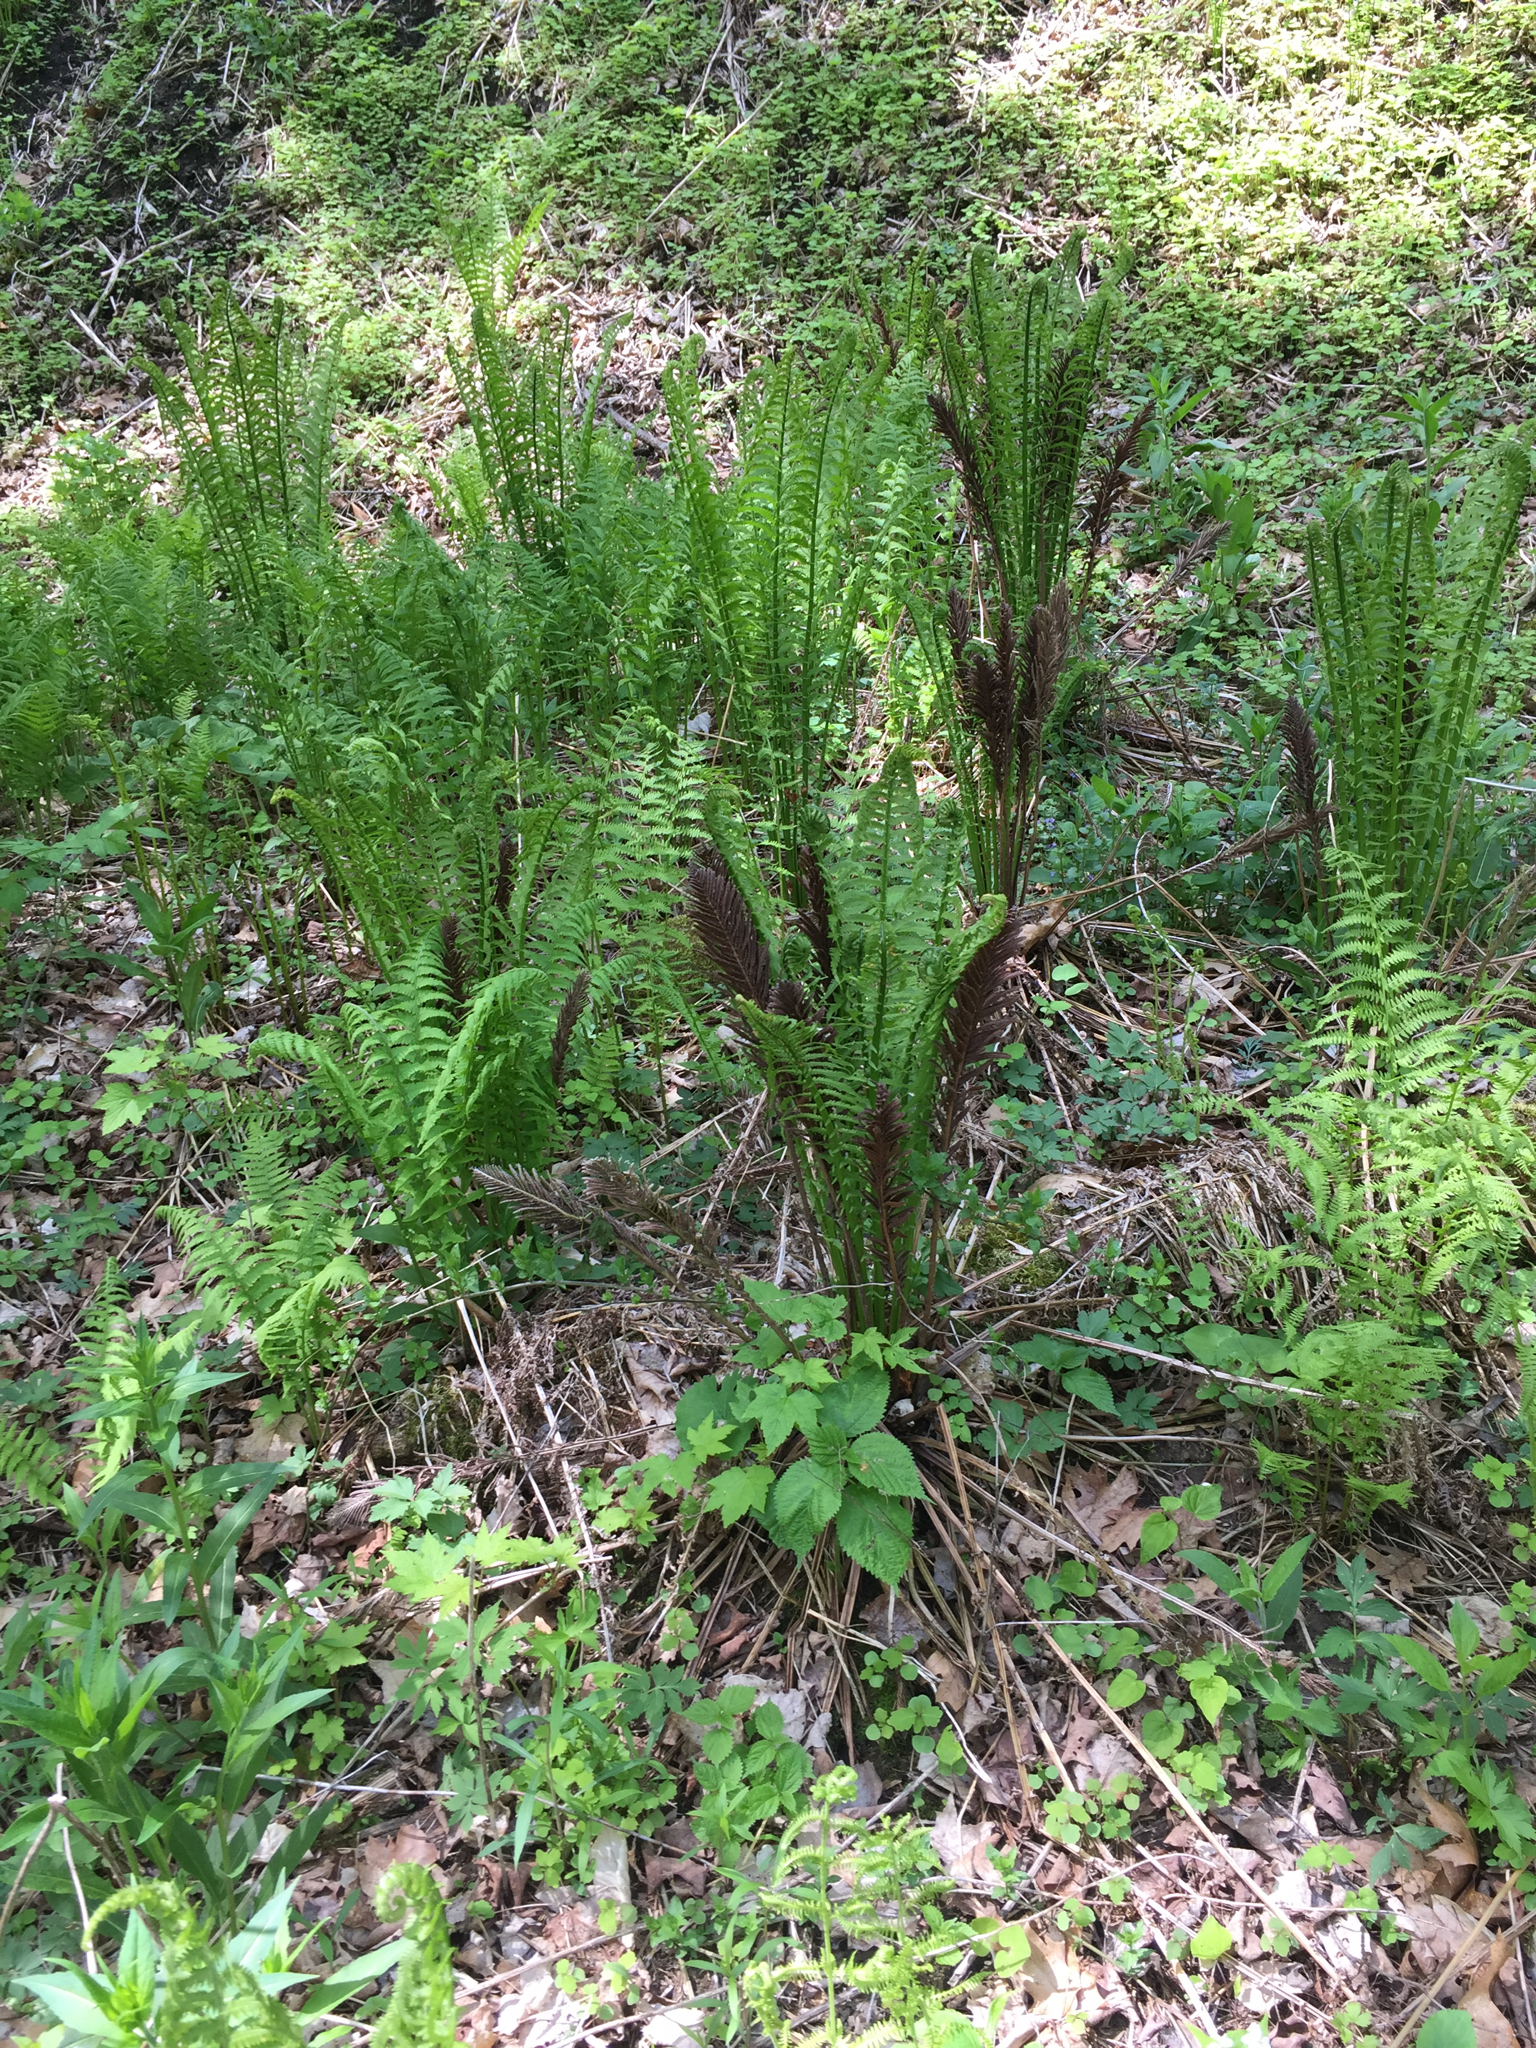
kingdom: Plantae
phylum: Tracheophyta
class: Polypodiopsida
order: Polypodiales
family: Onocleaceae
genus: Matteuccia
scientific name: Matteuccia struthiopteris
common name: Ostrich fern
